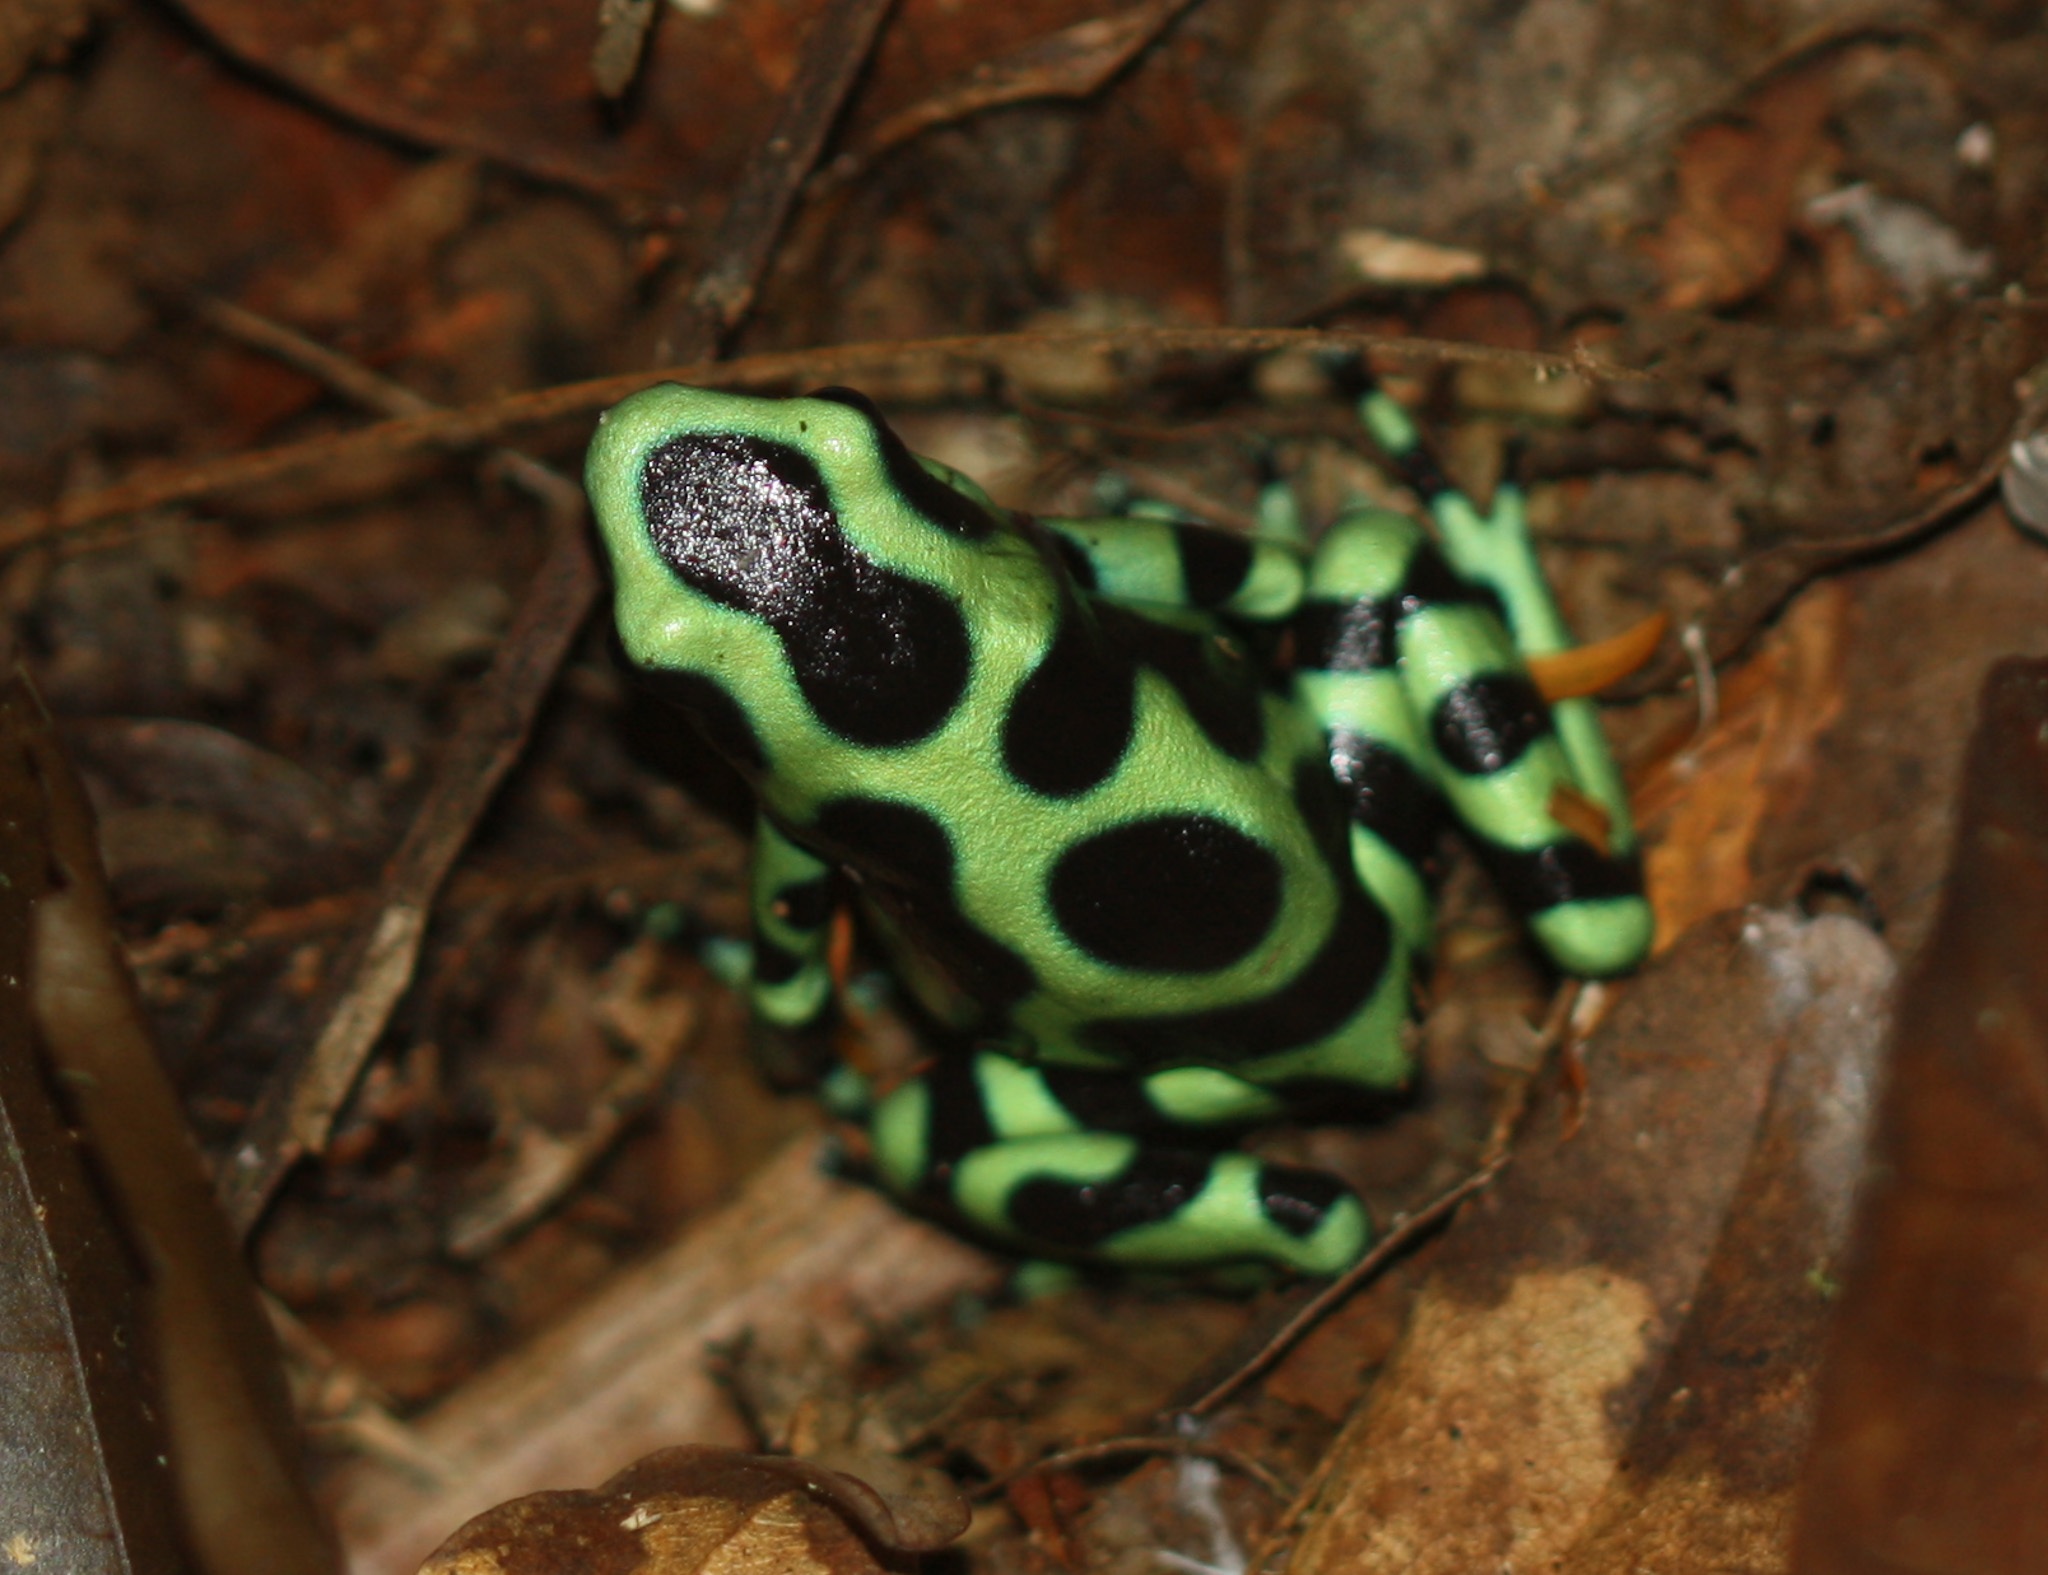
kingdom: Animalia
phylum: Chordata
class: Amphibia
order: Anura
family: Dendrobatidae
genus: Dendrobates
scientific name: Dendrobates auratus
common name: Green and black poison dart frog
